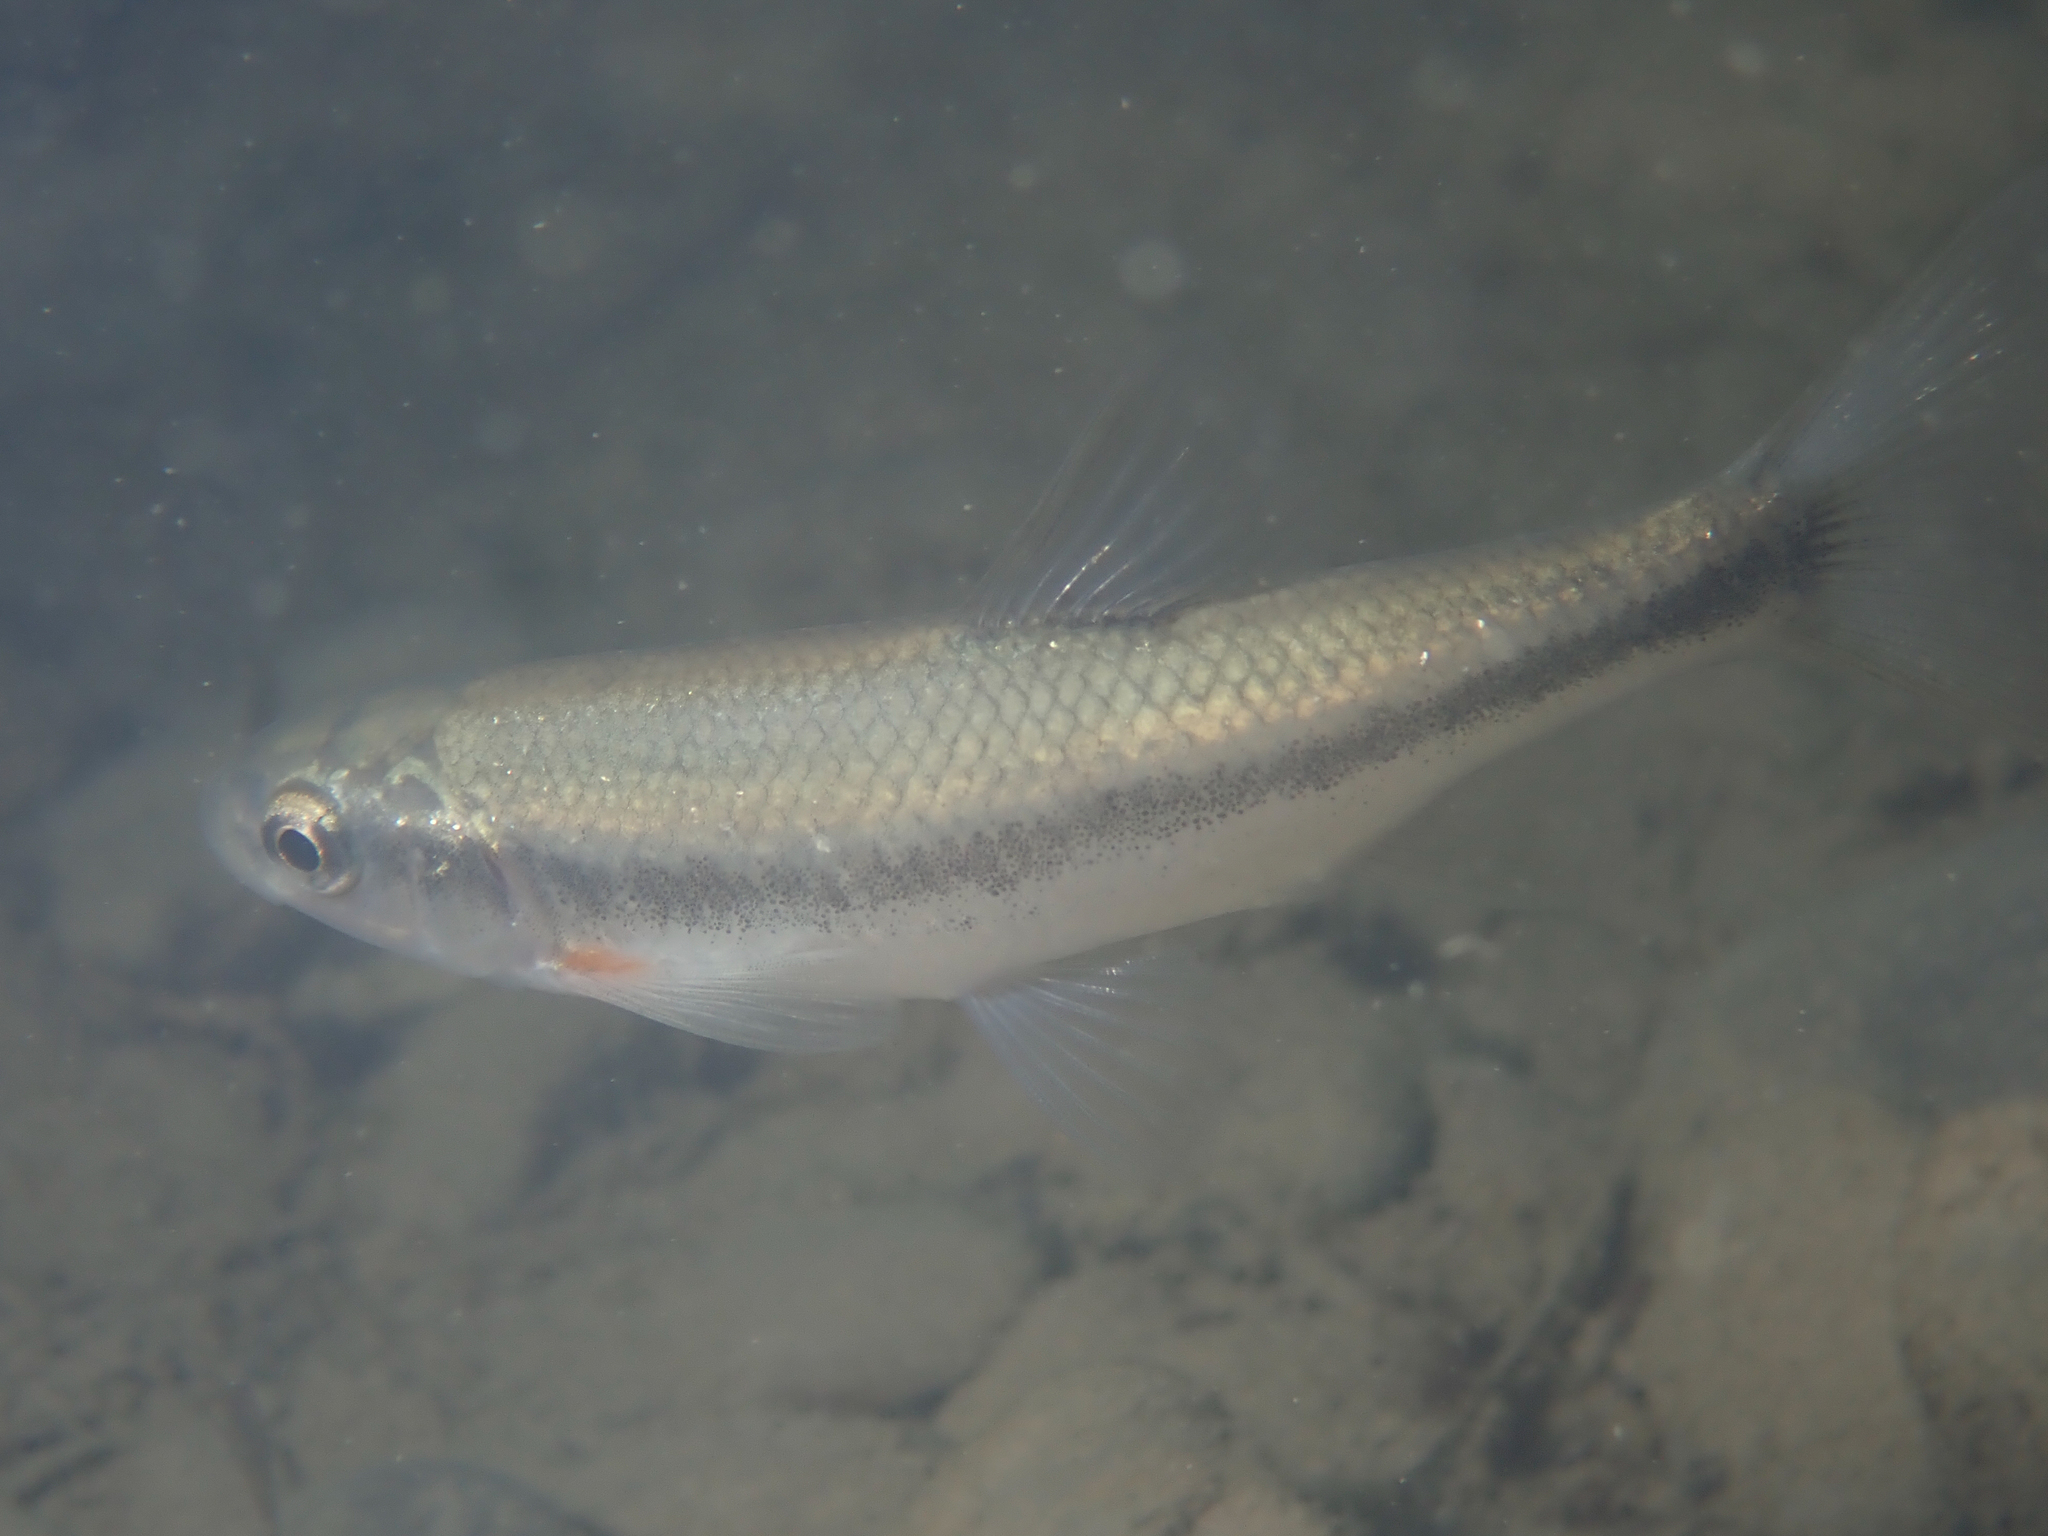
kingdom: Animalia
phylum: Chordata
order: Cypriniformes
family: Cyprinidae
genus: Telestes
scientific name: Telestes muticellus
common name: Italian riffle dace
